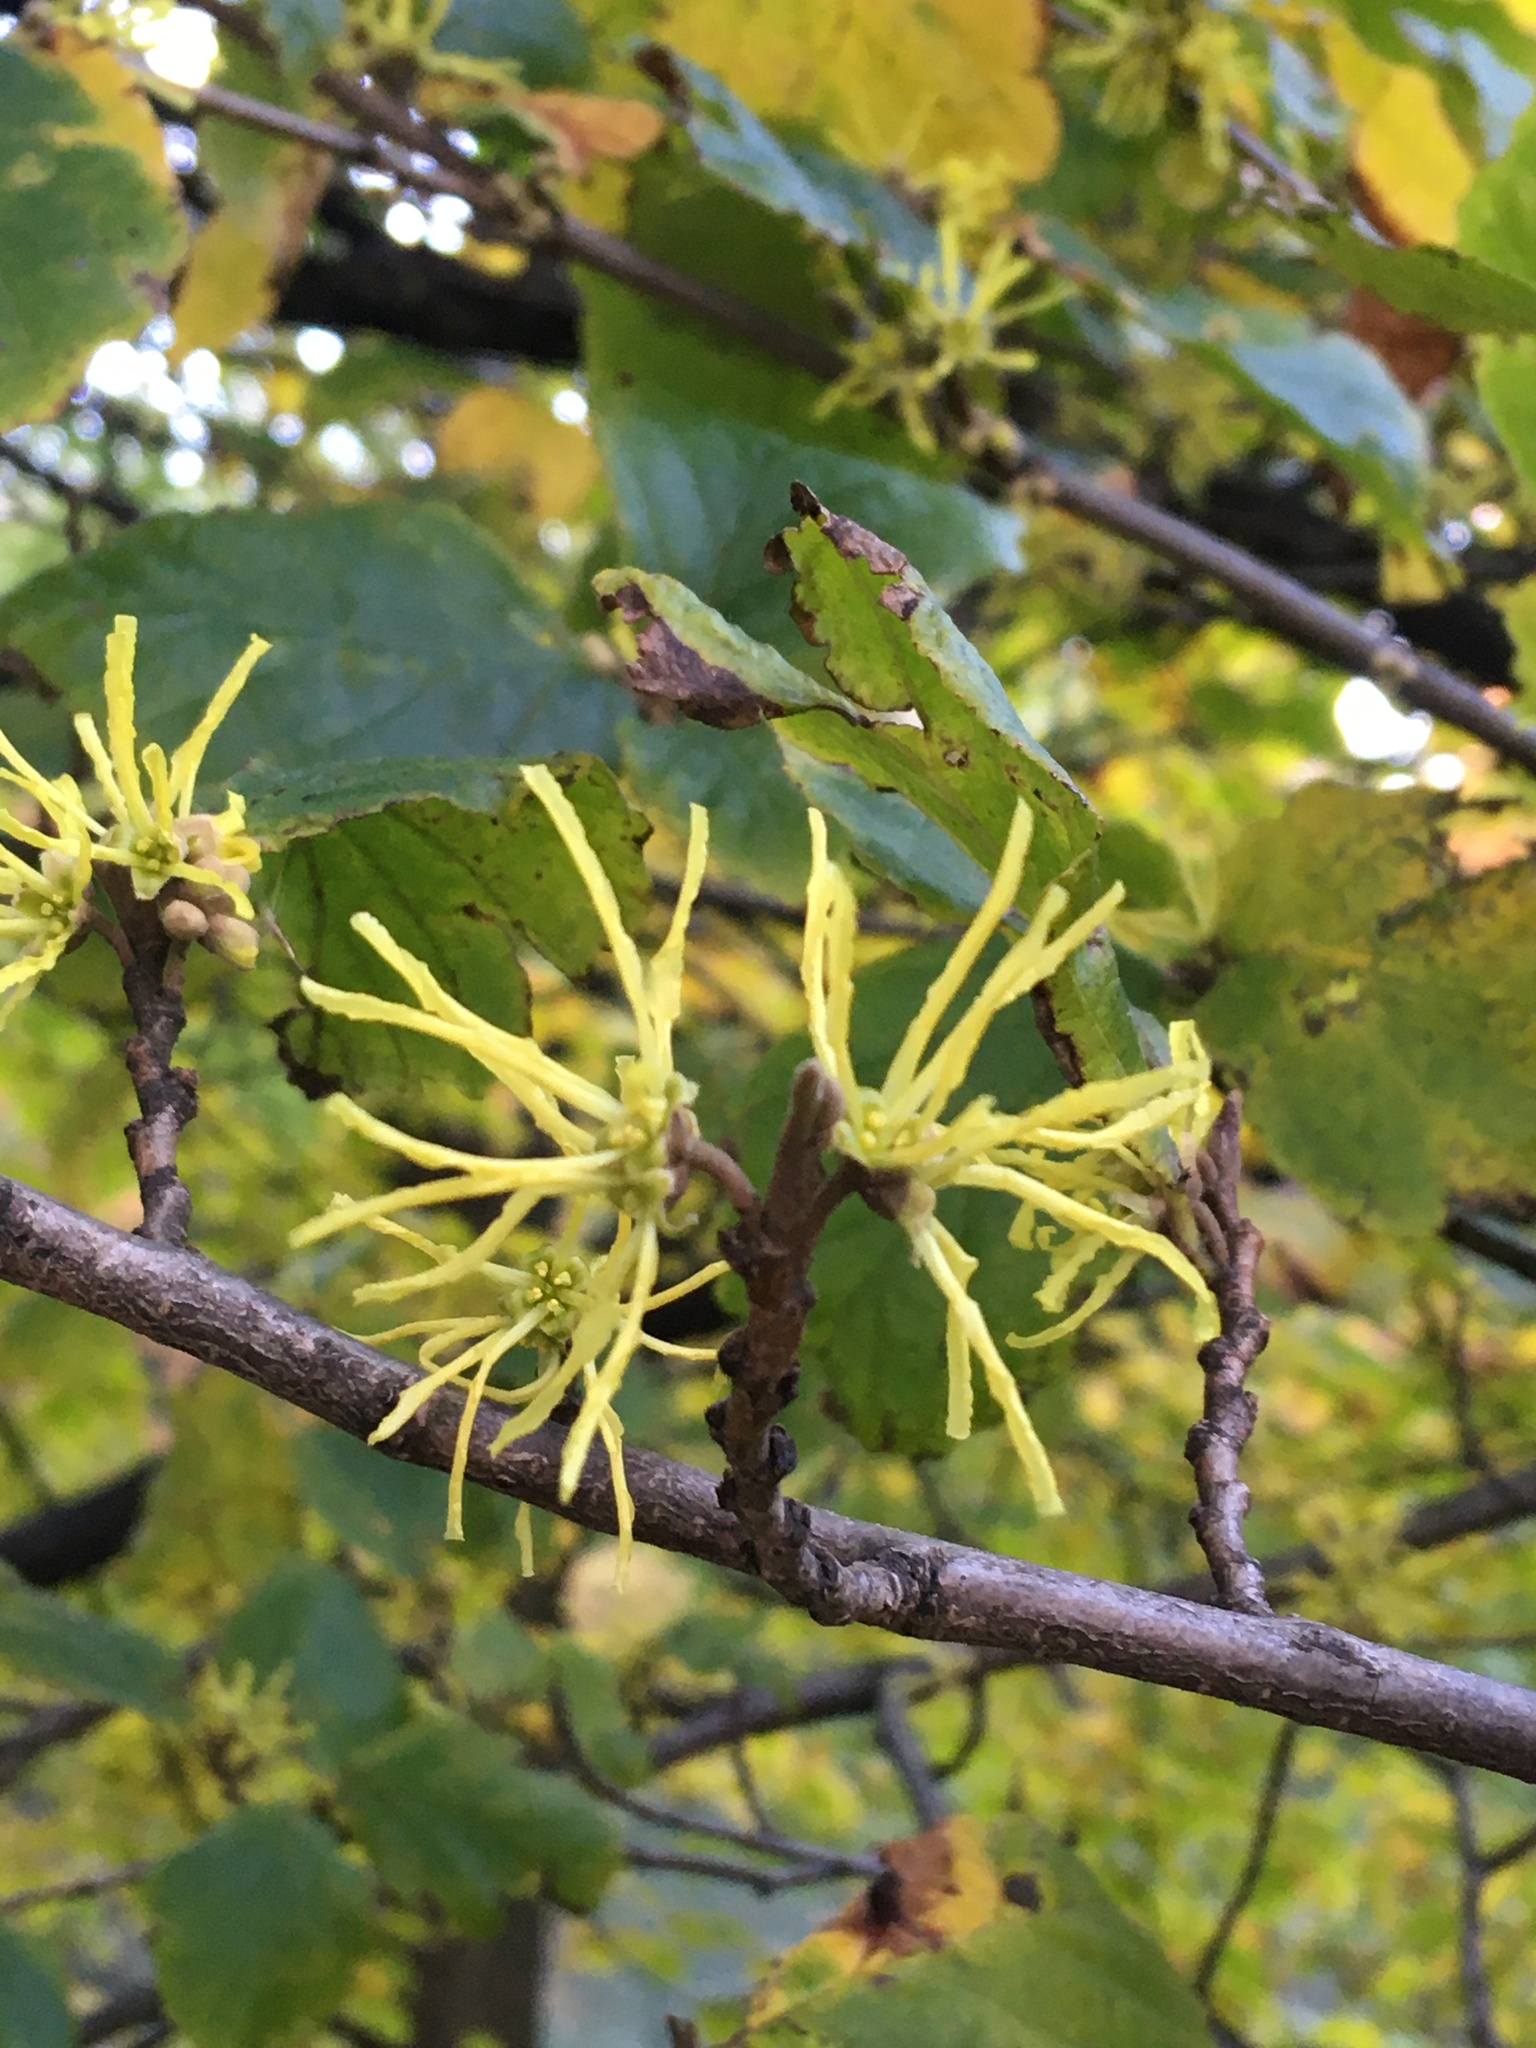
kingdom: Plantae
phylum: Tracheophyta
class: Magnoliopsida
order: Saxifragales
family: Hamamelidaceae
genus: Hamamelis
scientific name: Hamamelis virginiana
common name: Witch-hazel
